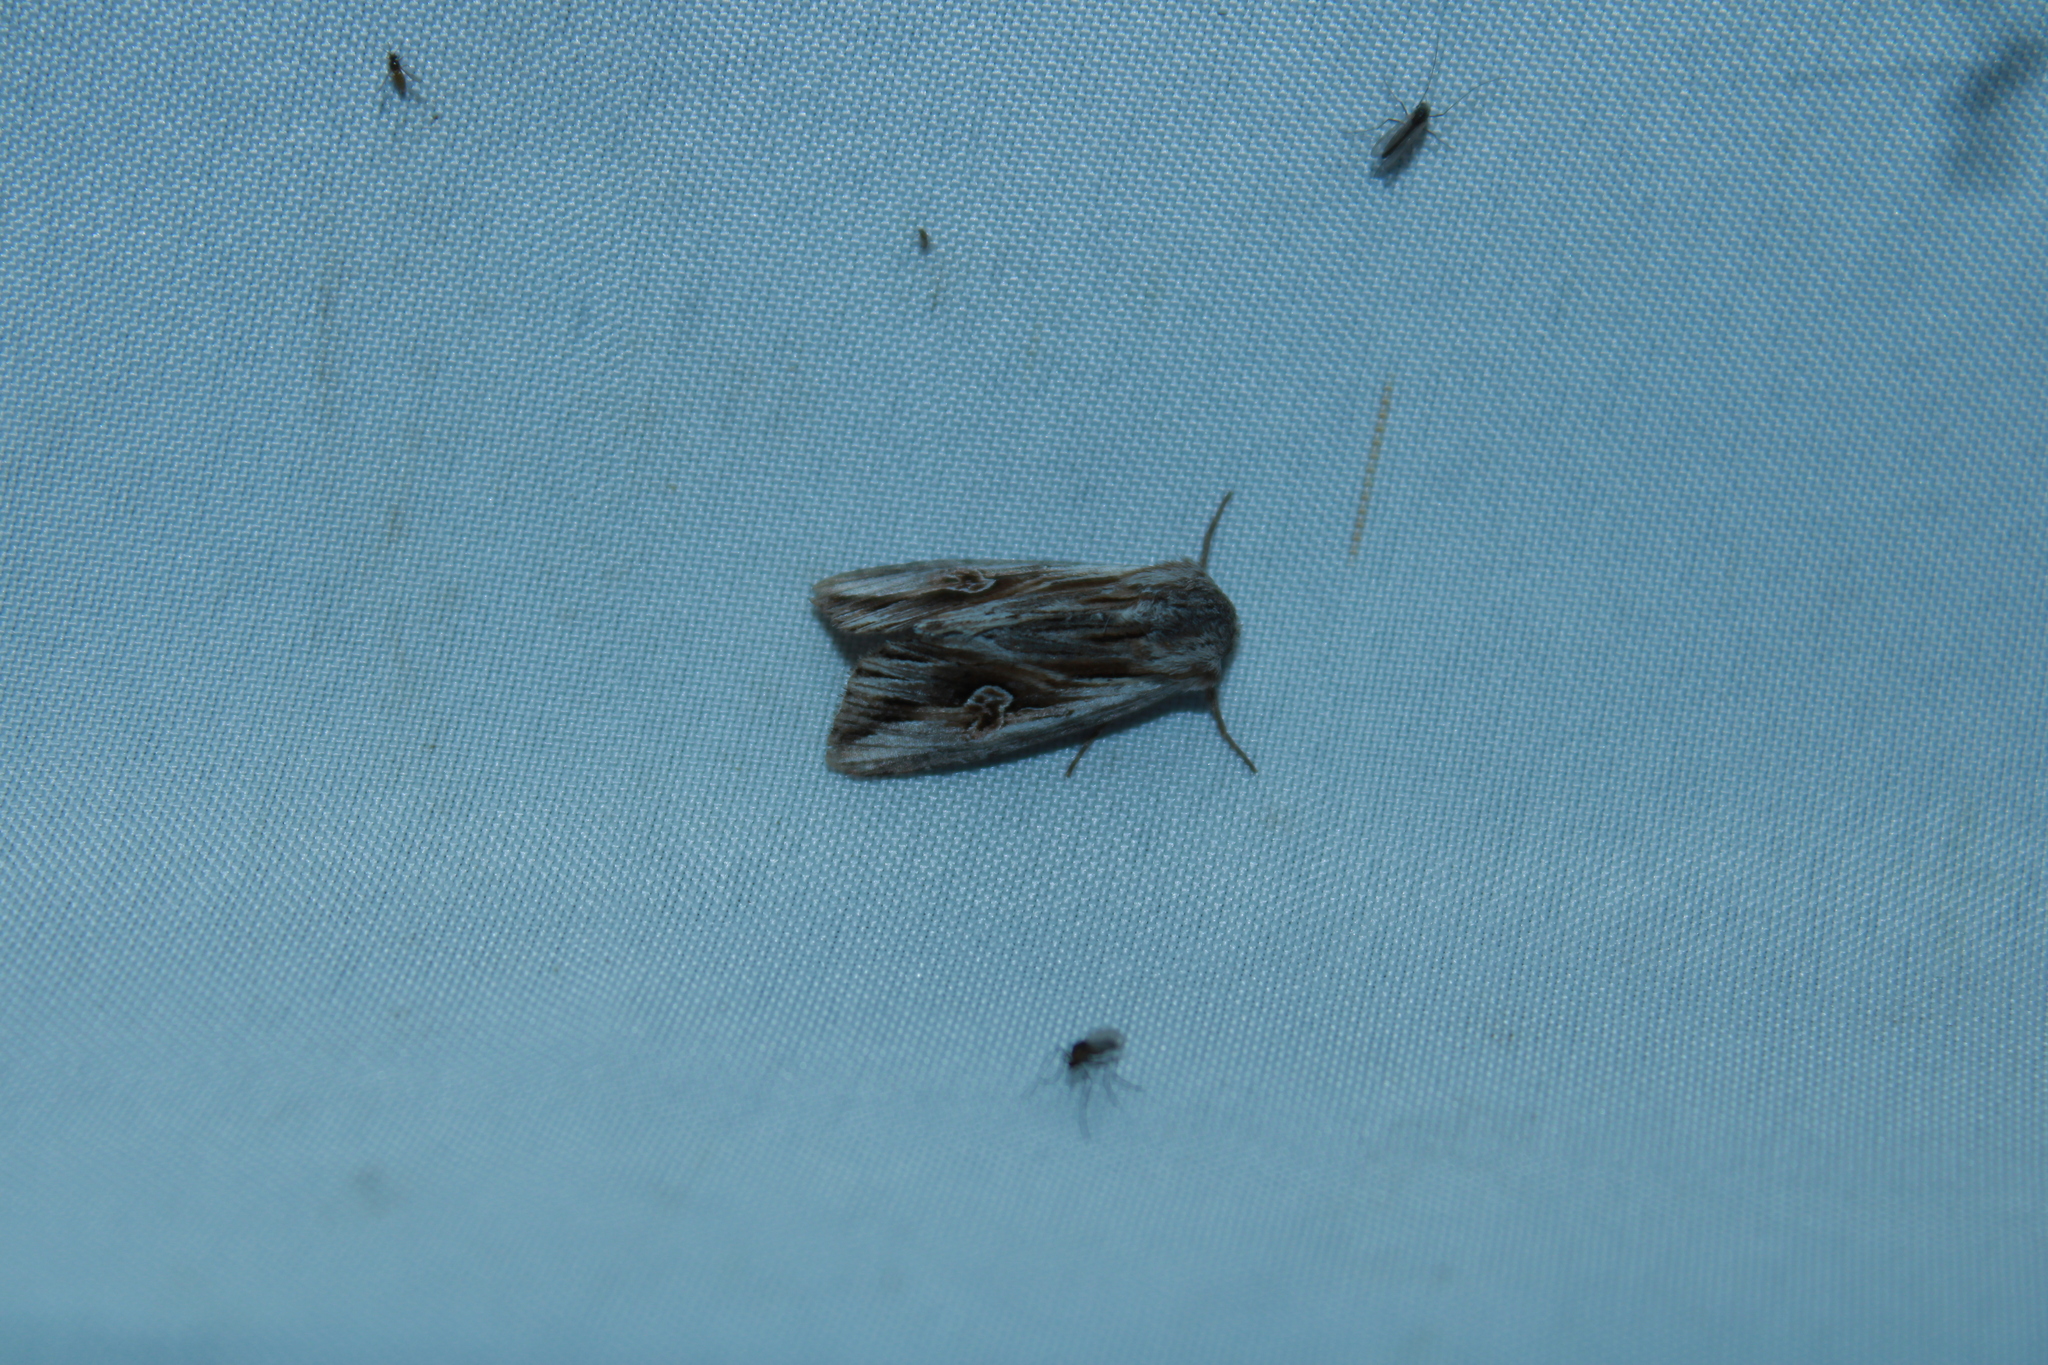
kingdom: Animalia
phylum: Arthropoda
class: Insecta
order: Lepidoptera
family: Noctuidae
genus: Nedra
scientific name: Nedra ramosula
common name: Gray half-spot
